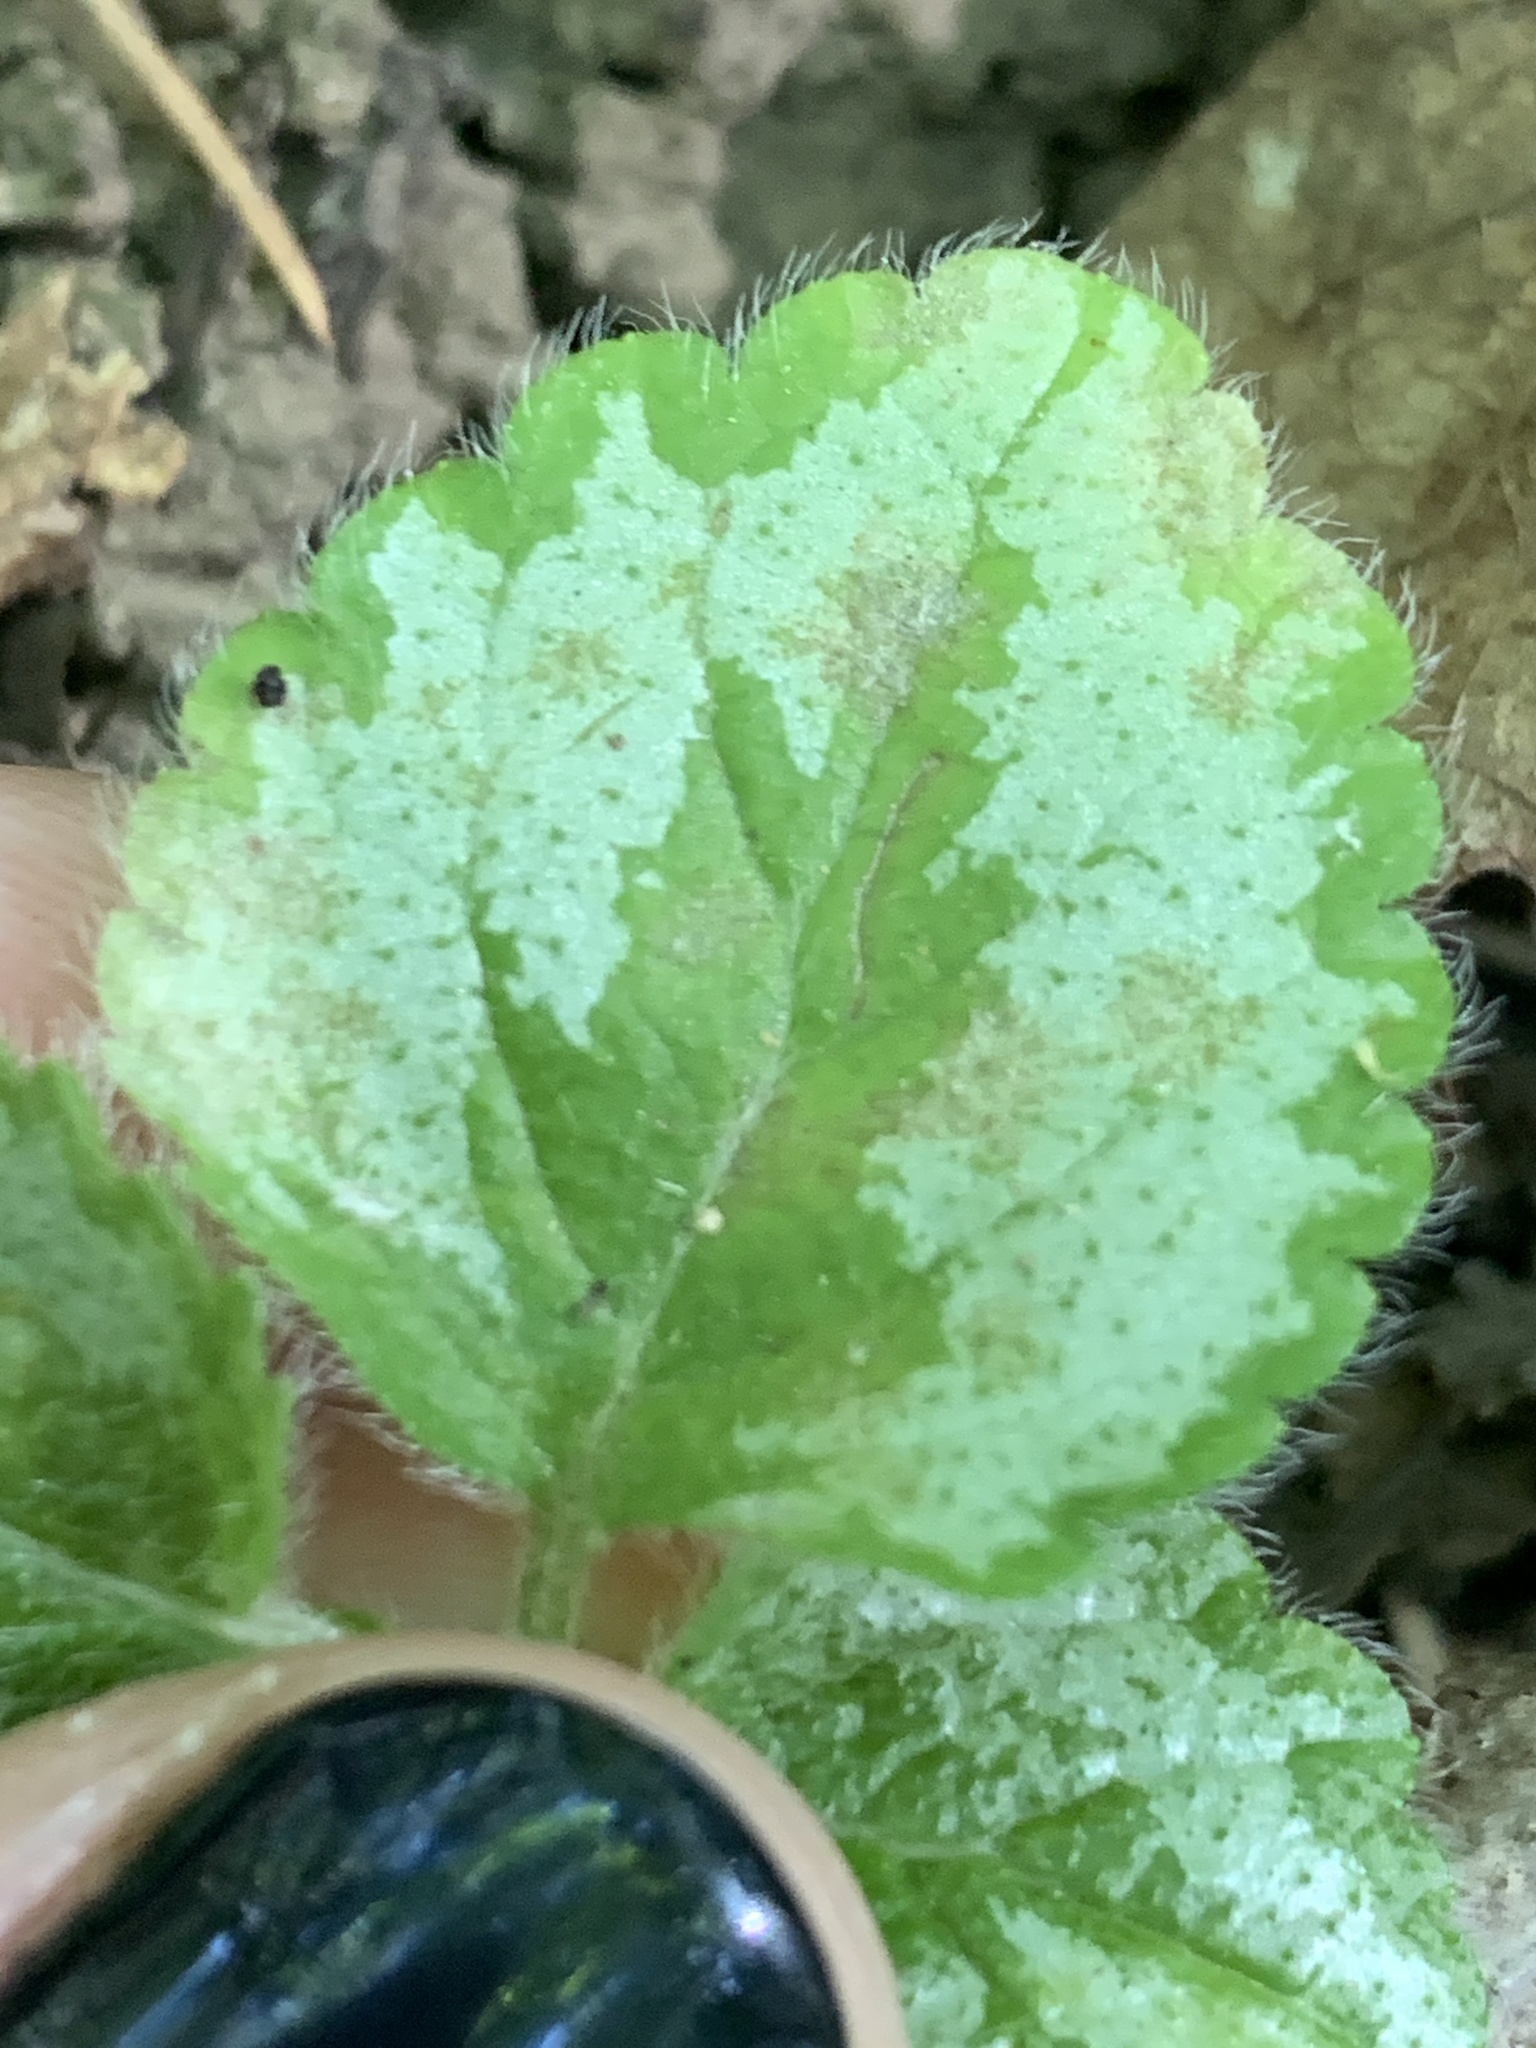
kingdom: Plantae
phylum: Tracheophyta
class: Magnoliopsida
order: Lamiales
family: Lamiaceae
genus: Lamium
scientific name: Lamium galeobdolon
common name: Yellow archangel
